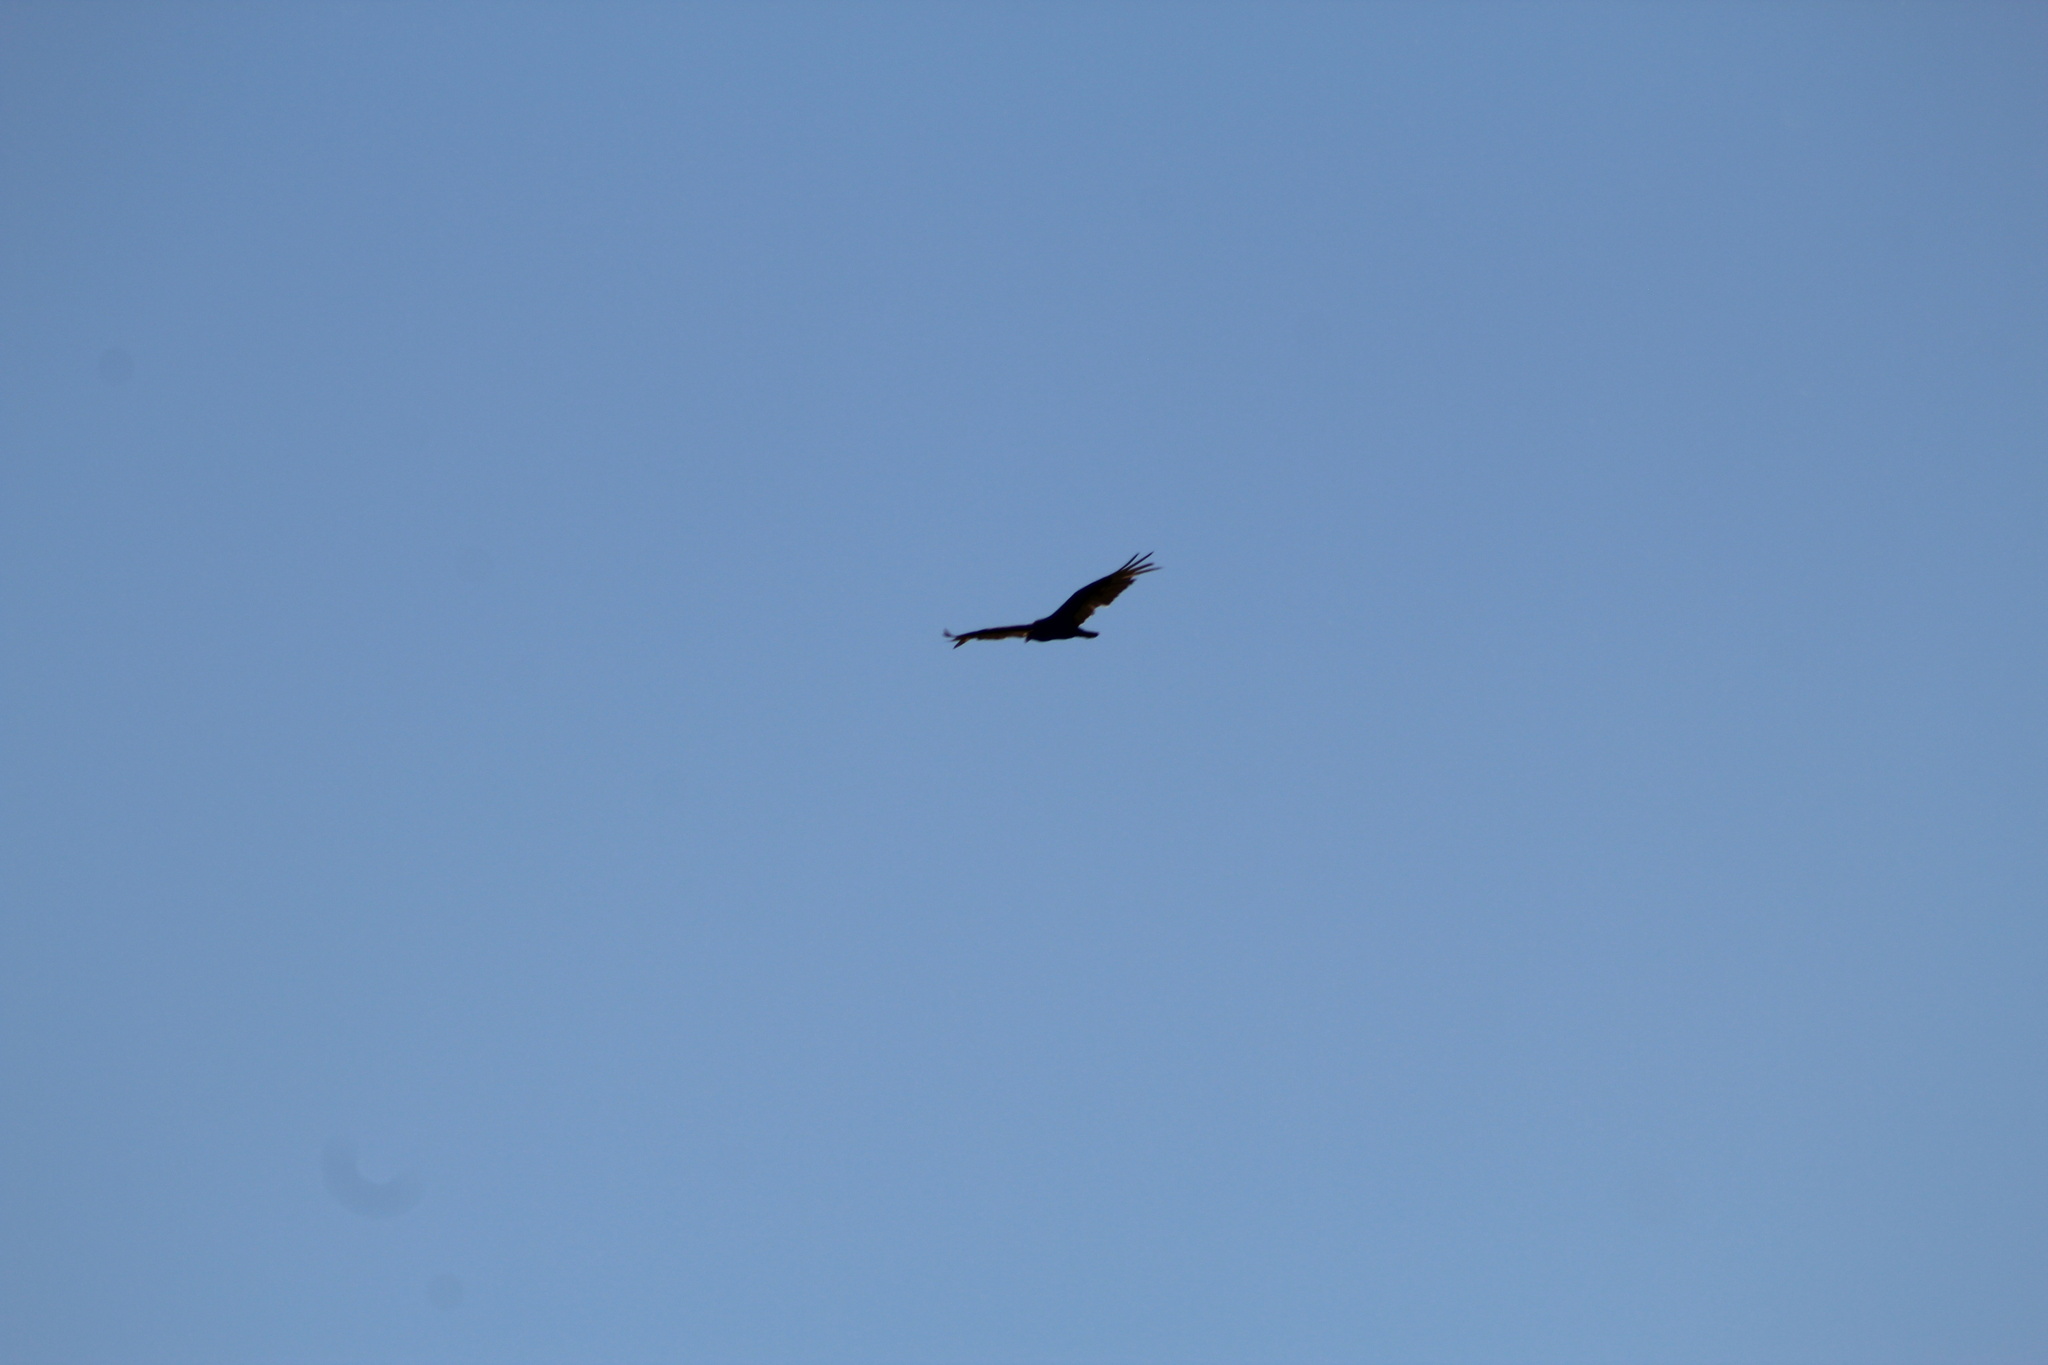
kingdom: Animalia
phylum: Chordata
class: Aves
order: Accipitriformes
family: Cathartidae
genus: Cathartes
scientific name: Cathartes aura
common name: Turkey vulture
